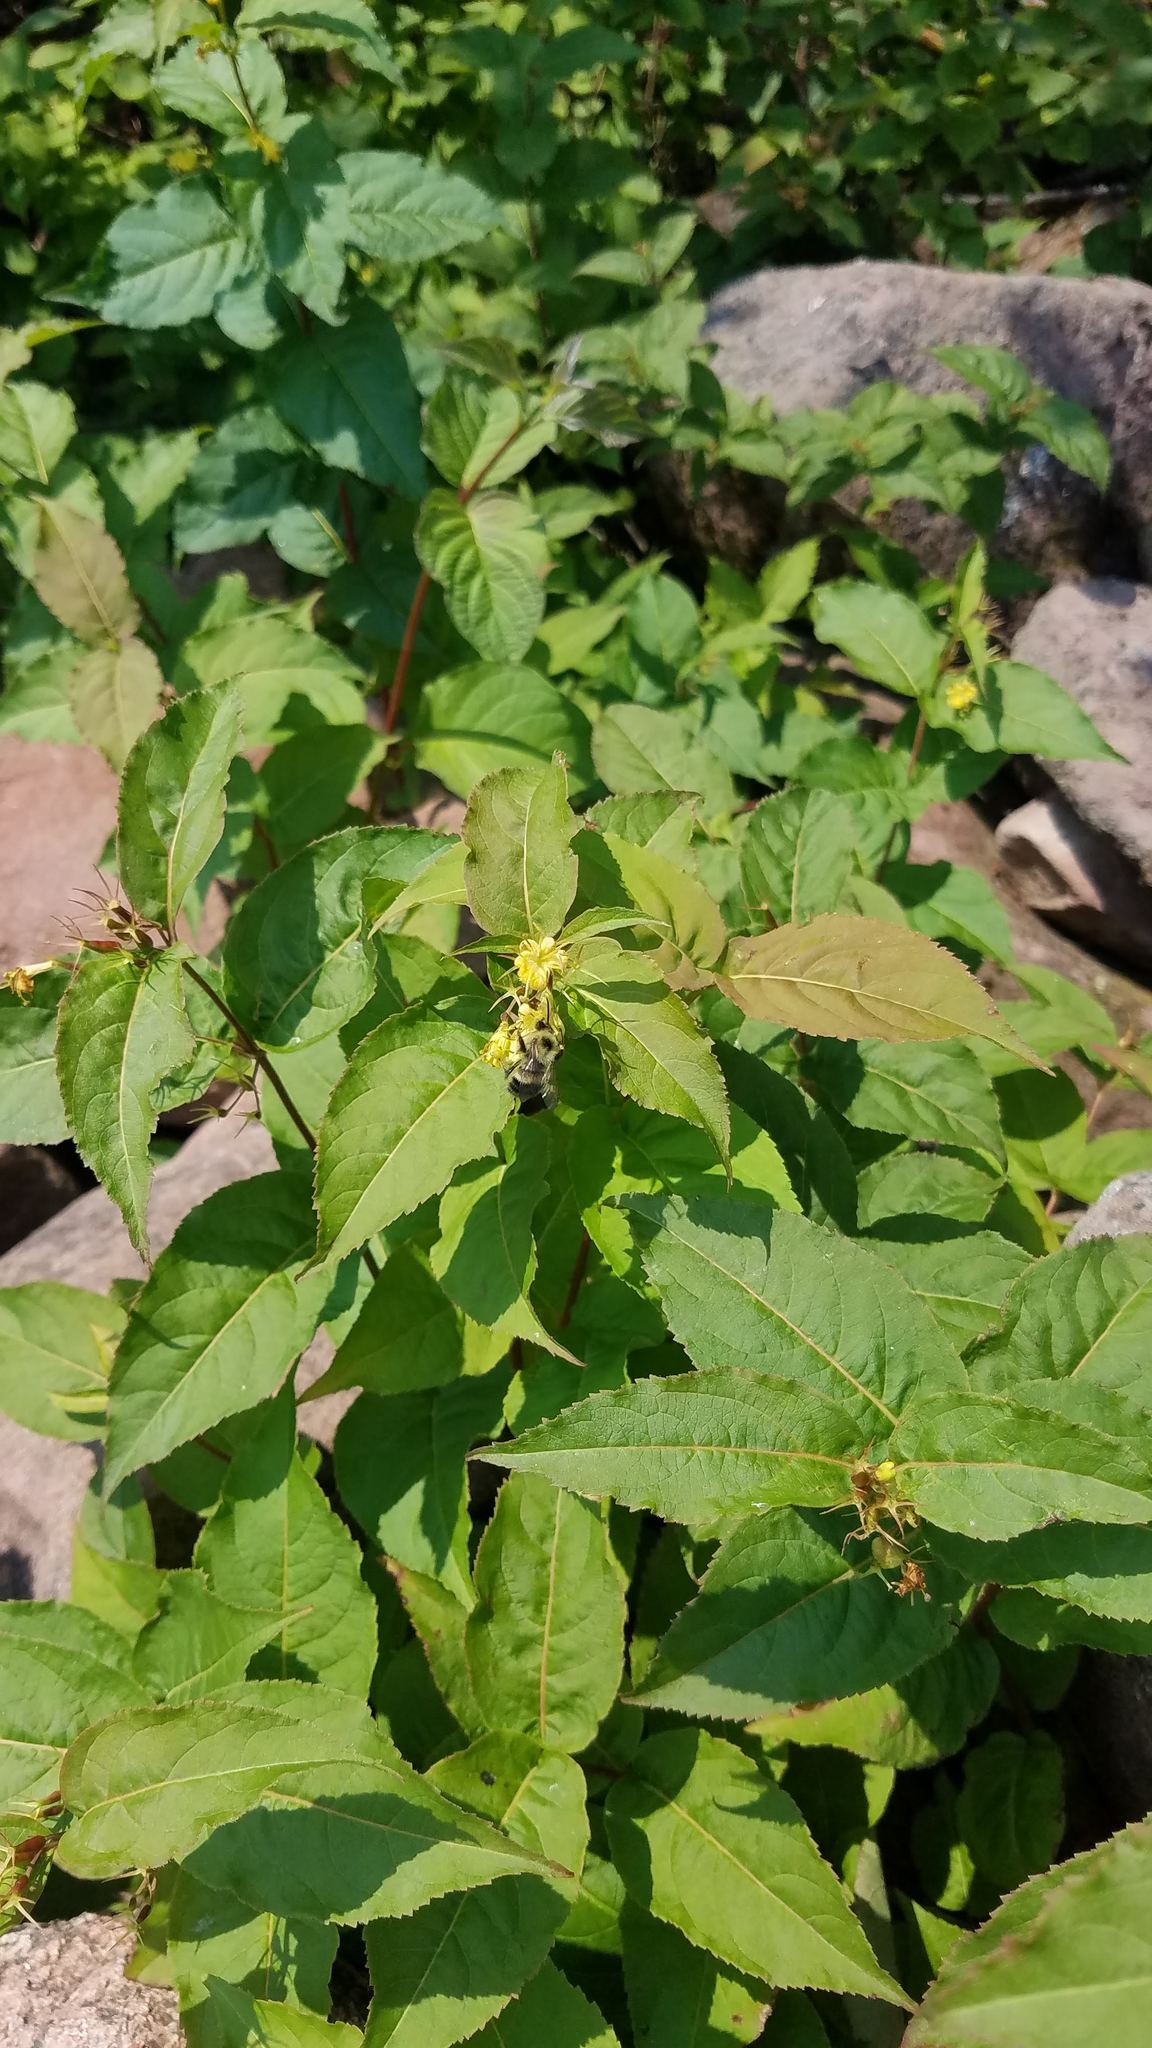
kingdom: Plantae
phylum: Tracheophyta
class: Magnoliopsida
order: Dipsacales
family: Caprifoliaceae
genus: Diervilla
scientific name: Diervilla lonicera
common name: Bush-honeysuckle
